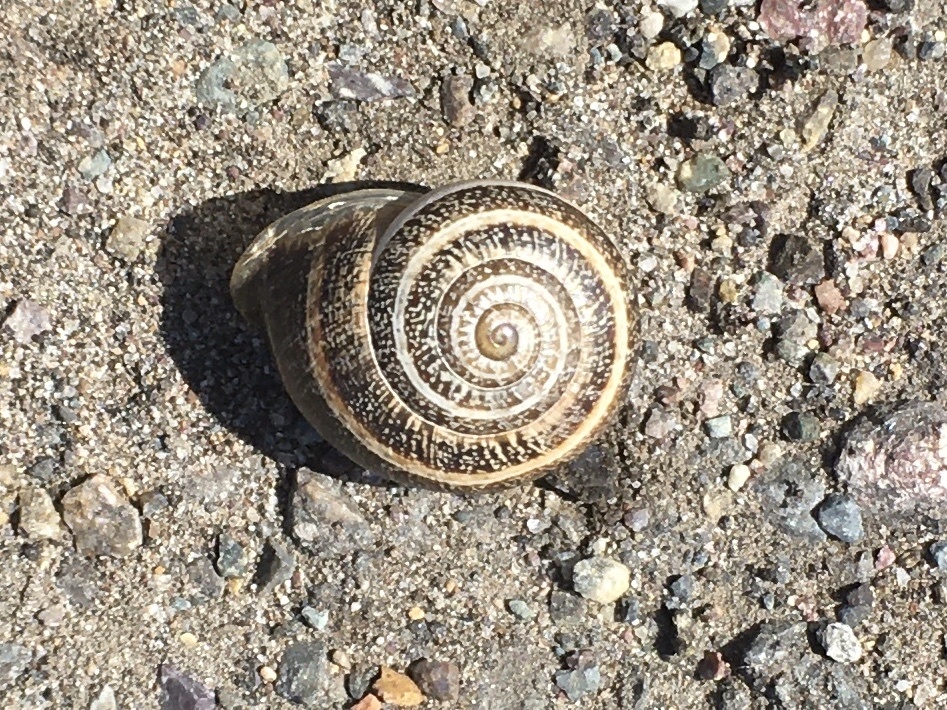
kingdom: Animalia
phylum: Mollusca
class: Gastropoda
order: Stylommatophora
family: Helicidae
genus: Otala
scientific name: Otala lactea
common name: Milk snail
